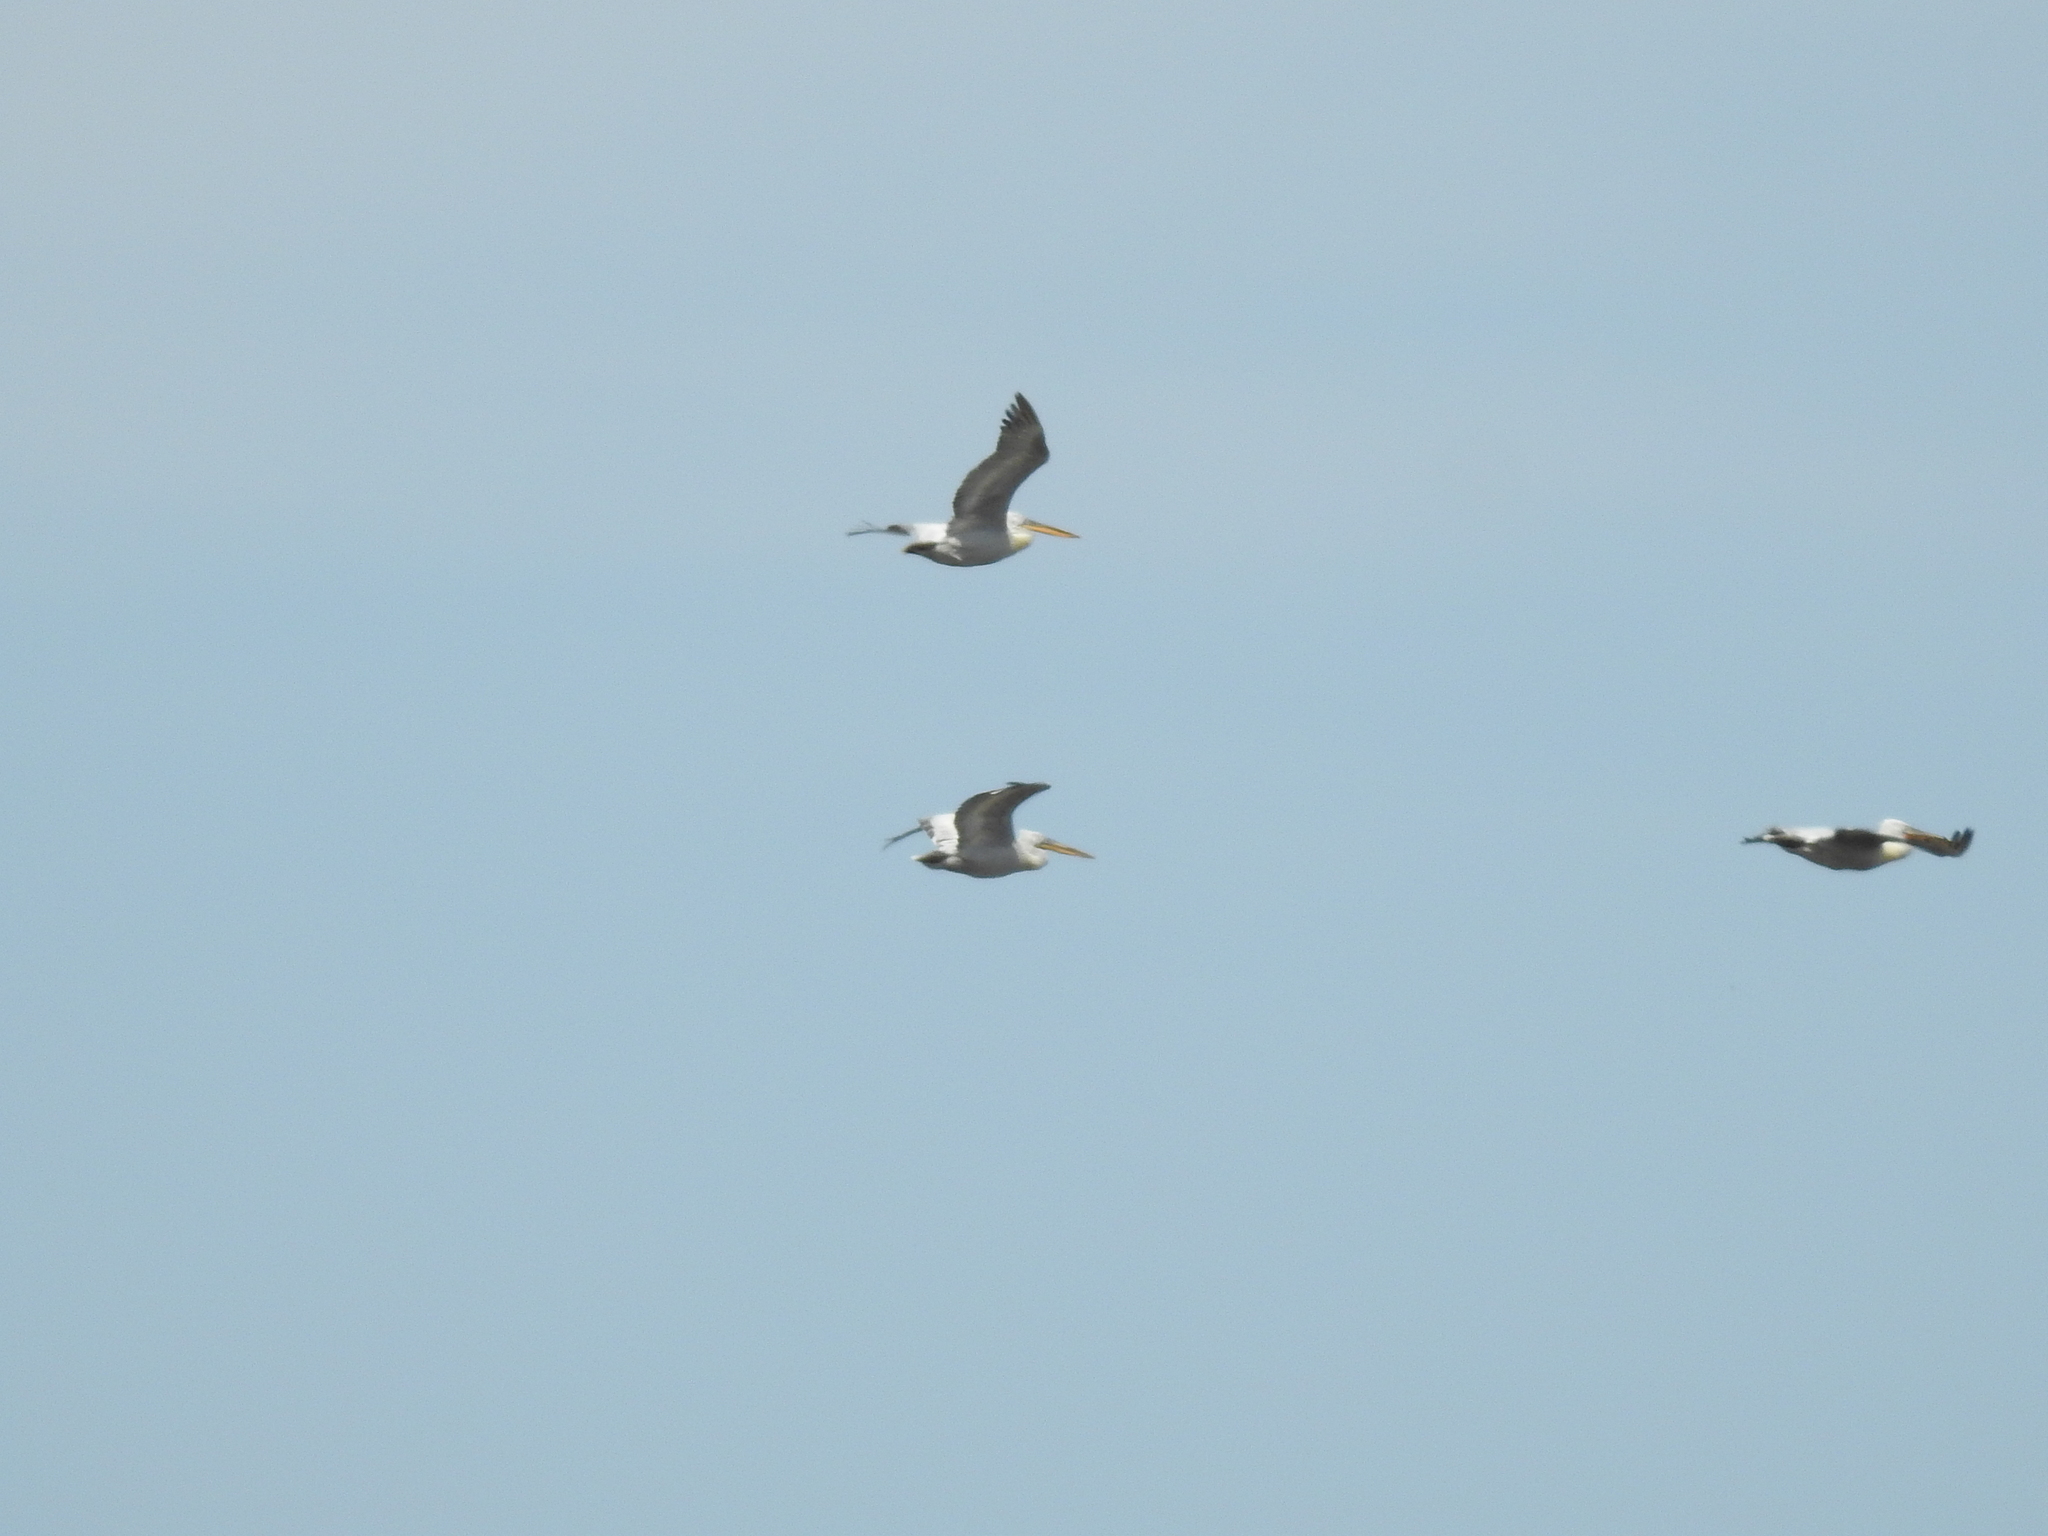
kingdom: Animalia
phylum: Chordata
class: Aves
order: Pelecaniformes
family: Pelecanidae
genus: Pelecanus
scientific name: Pelecanus crispus
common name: Dalmatian pelican
